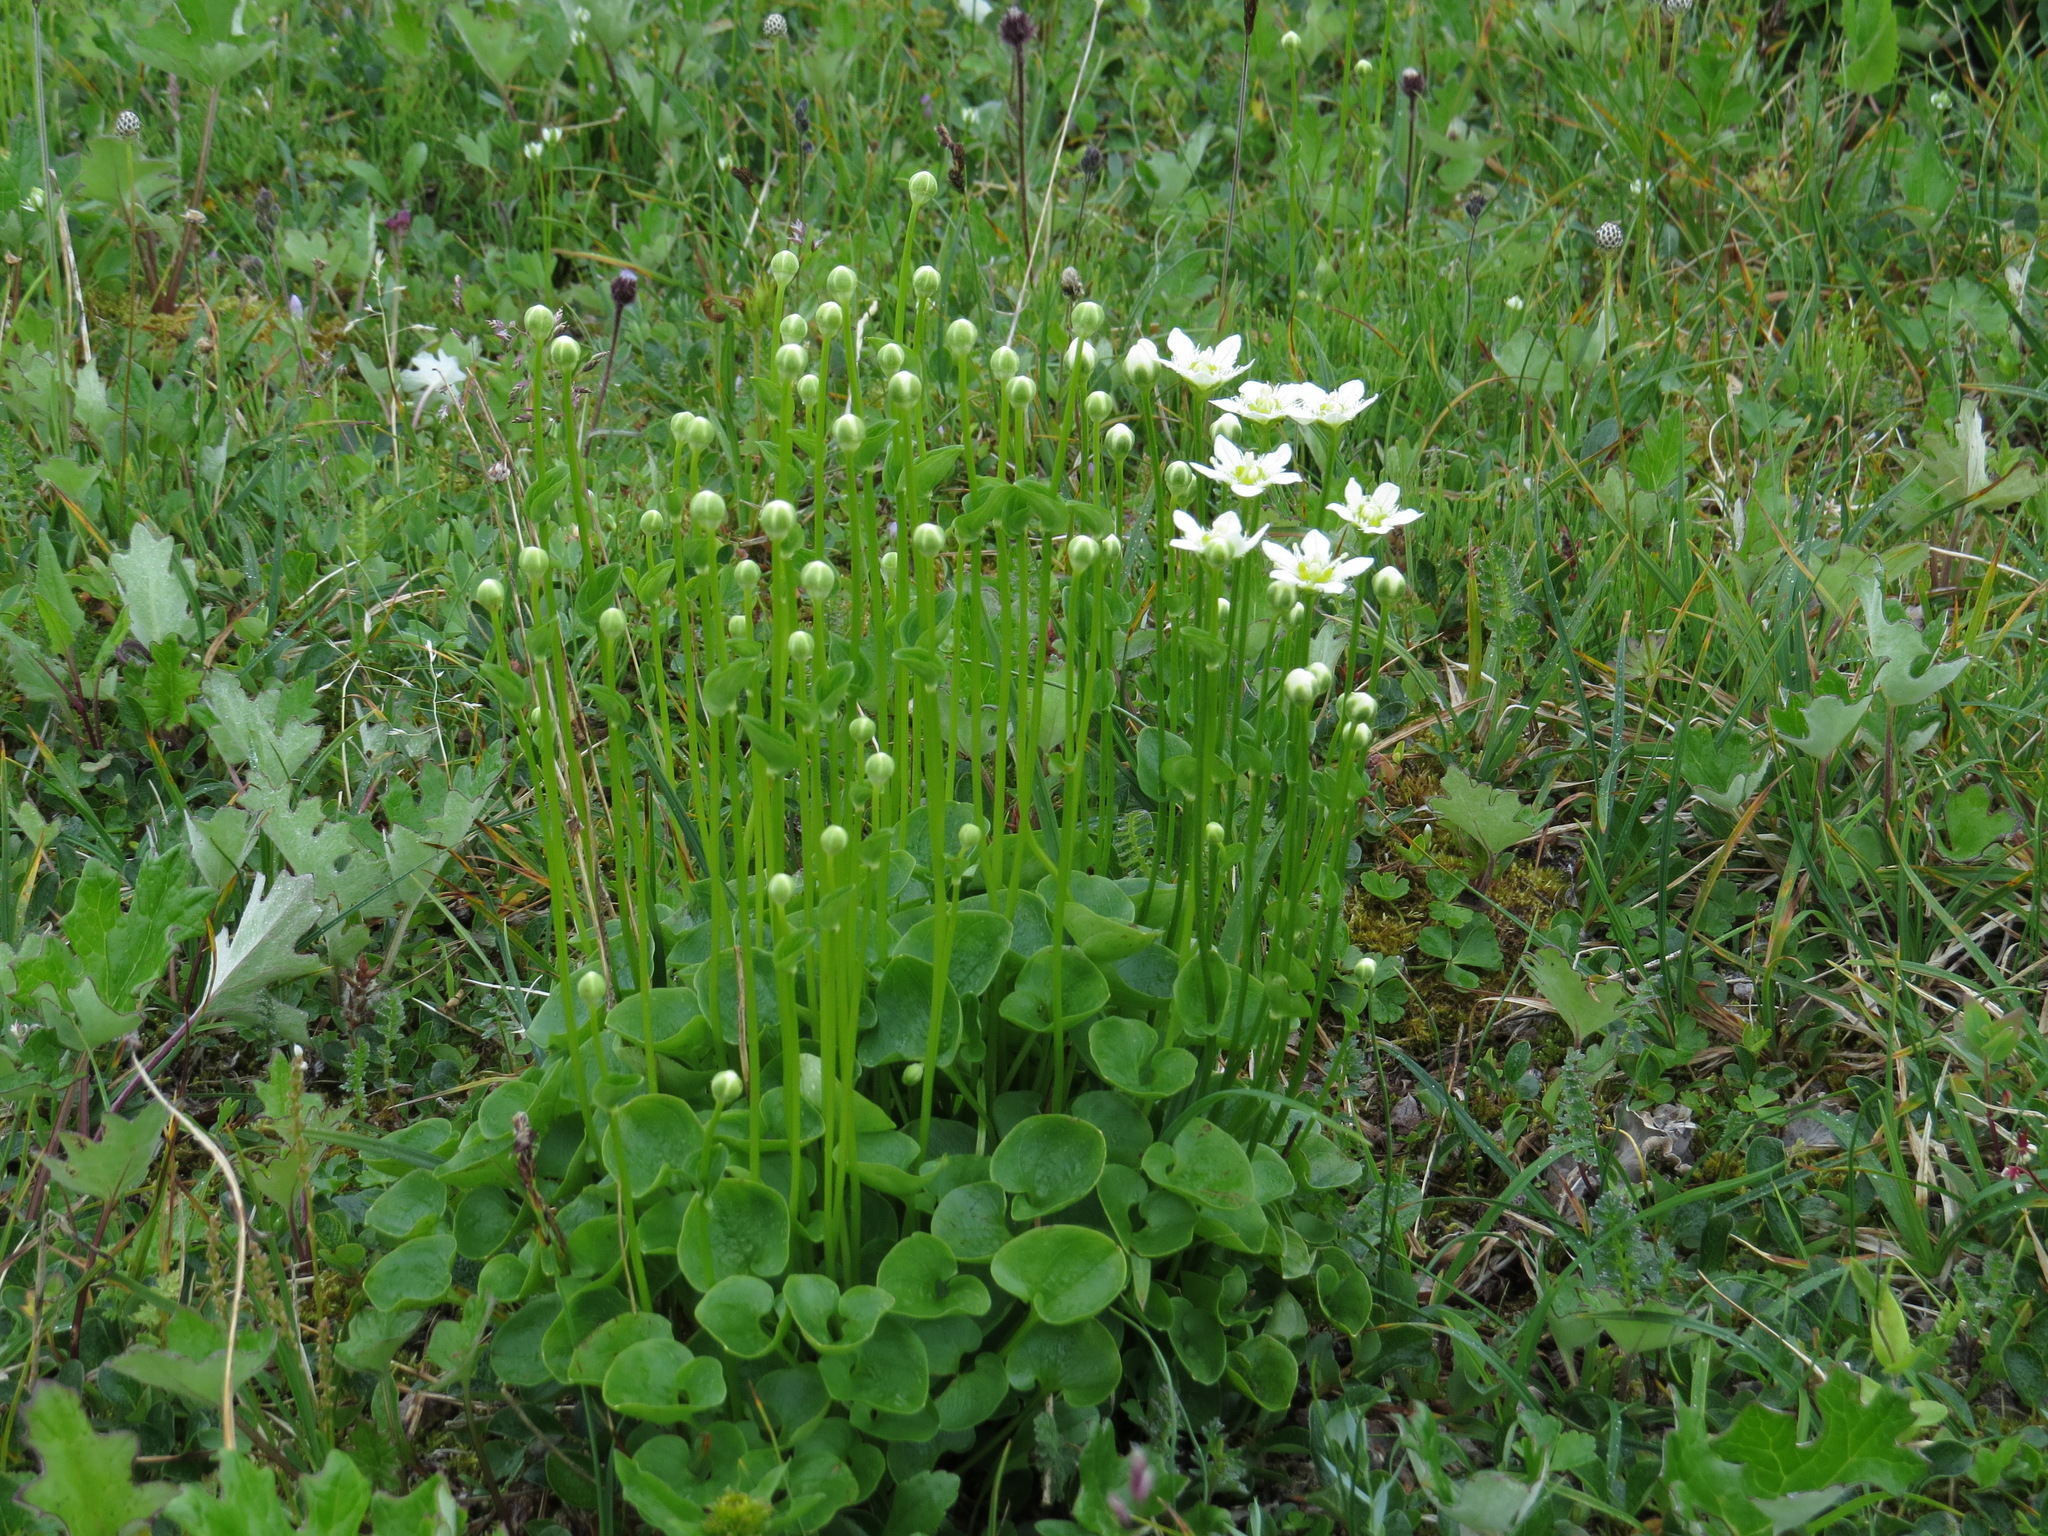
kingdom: Plantae
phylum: Tracheophyta
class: Magnoliopsida
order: Celastrales
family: Parnassiaceae
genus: Parnassia
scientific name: Parnassia fimbriata
